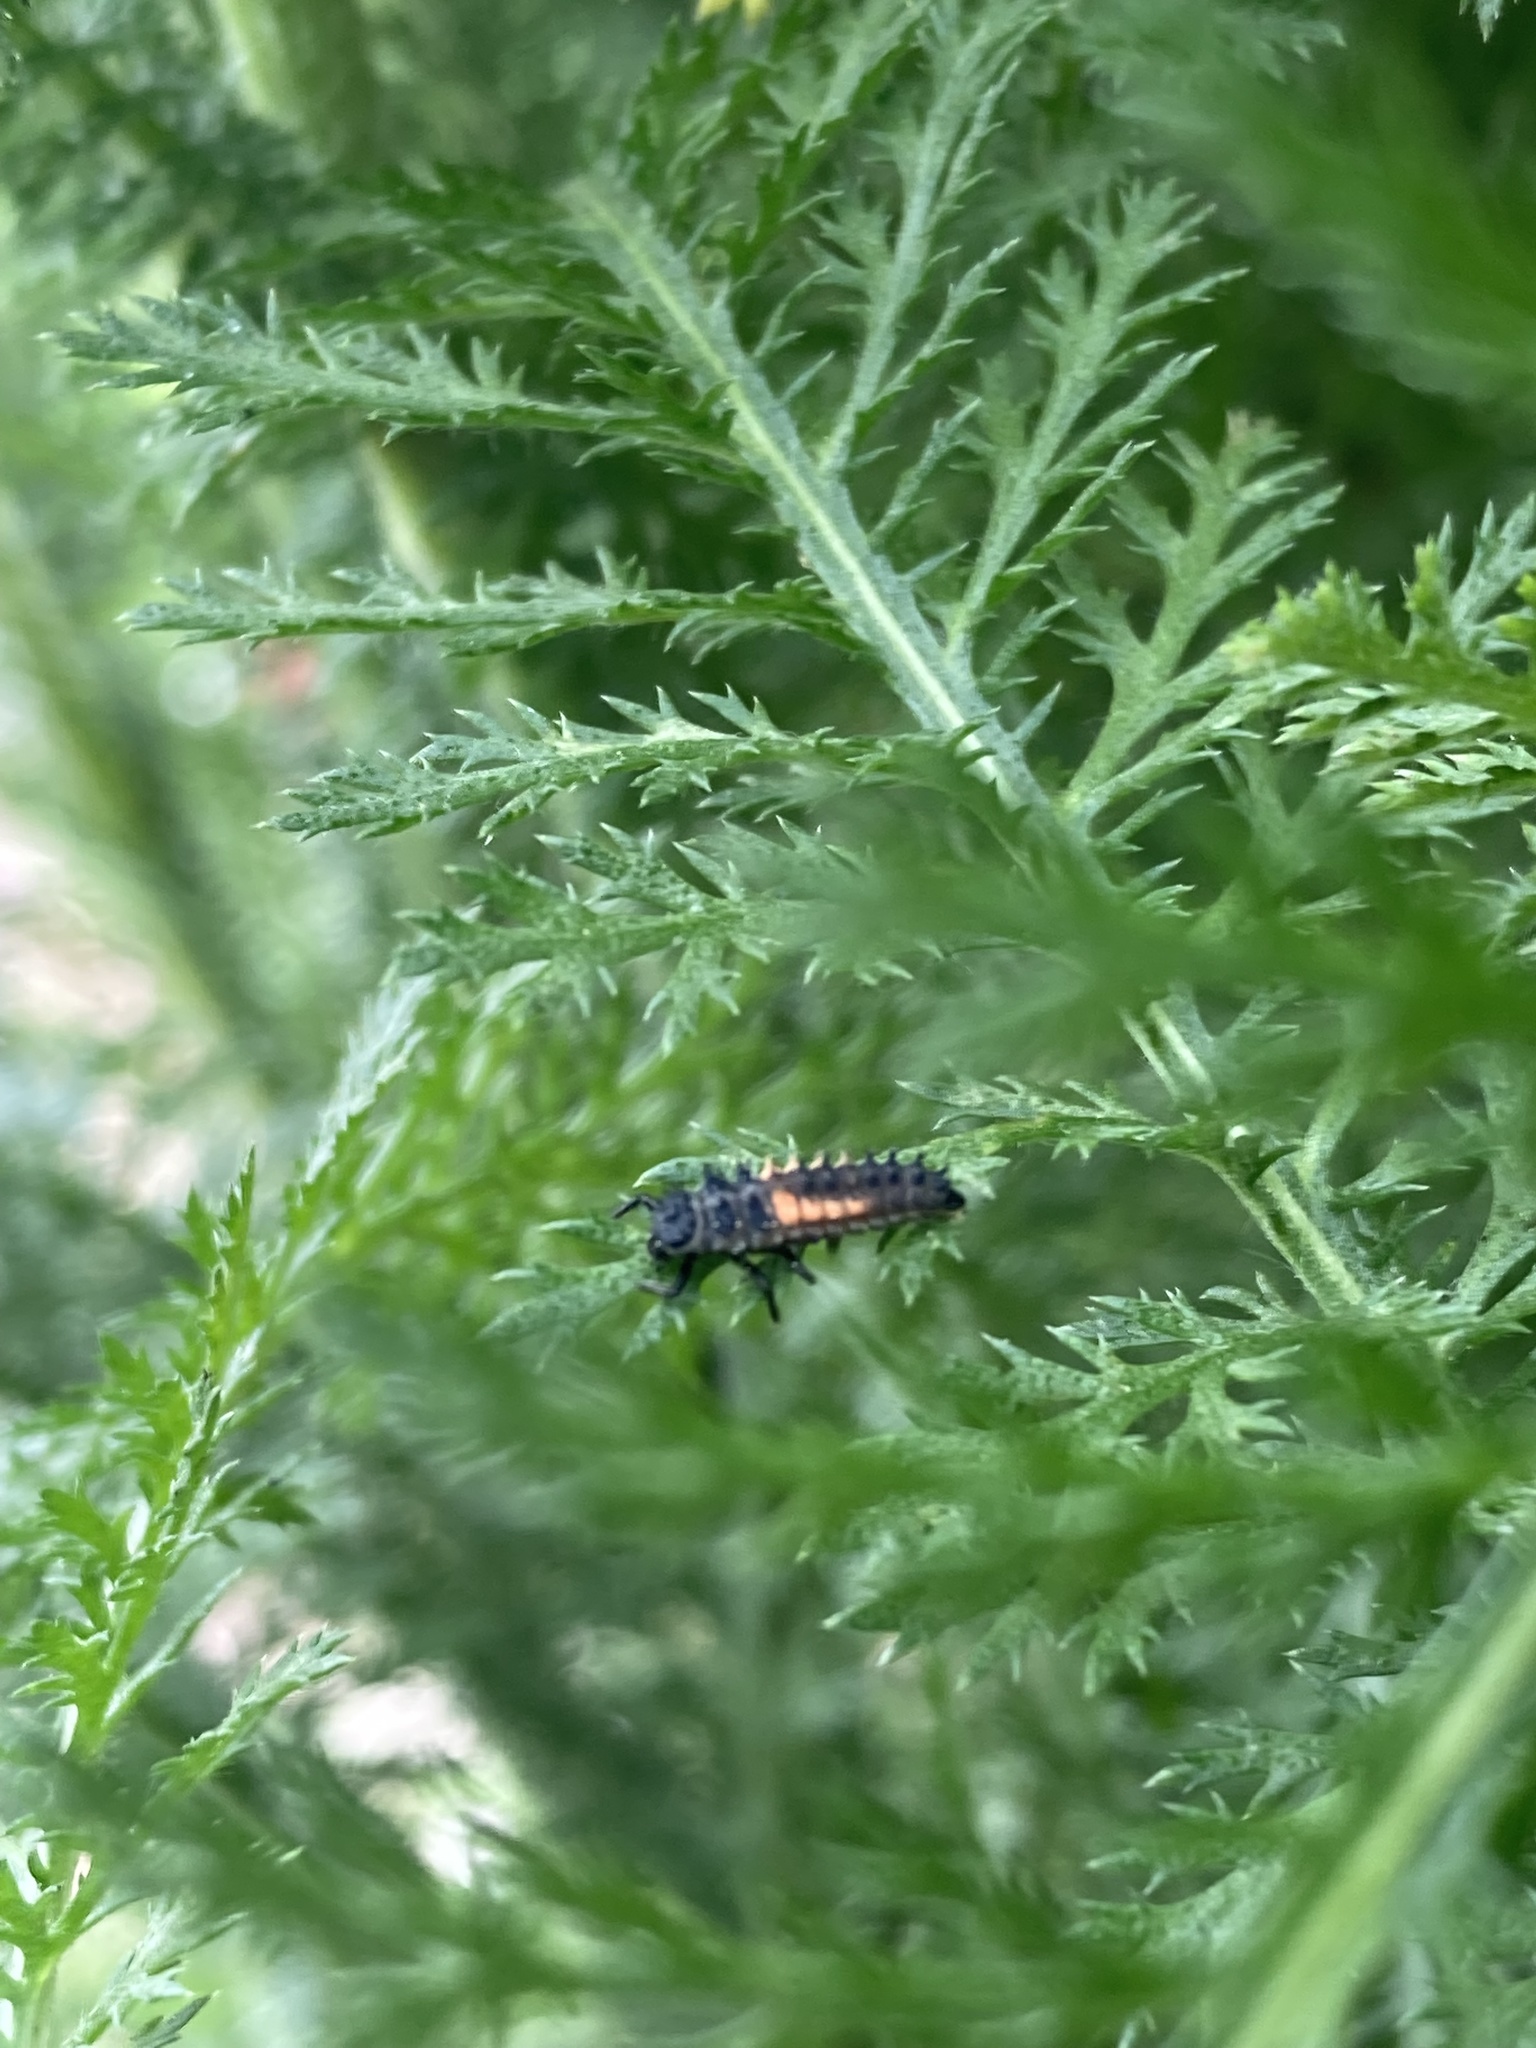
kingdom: Animalia
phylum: Arthropoda
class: Insecta
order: Coleoptera
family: Coccinellidae
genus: Harmonia
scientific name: Harmonia axyridis
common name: Harlequin ladybird
